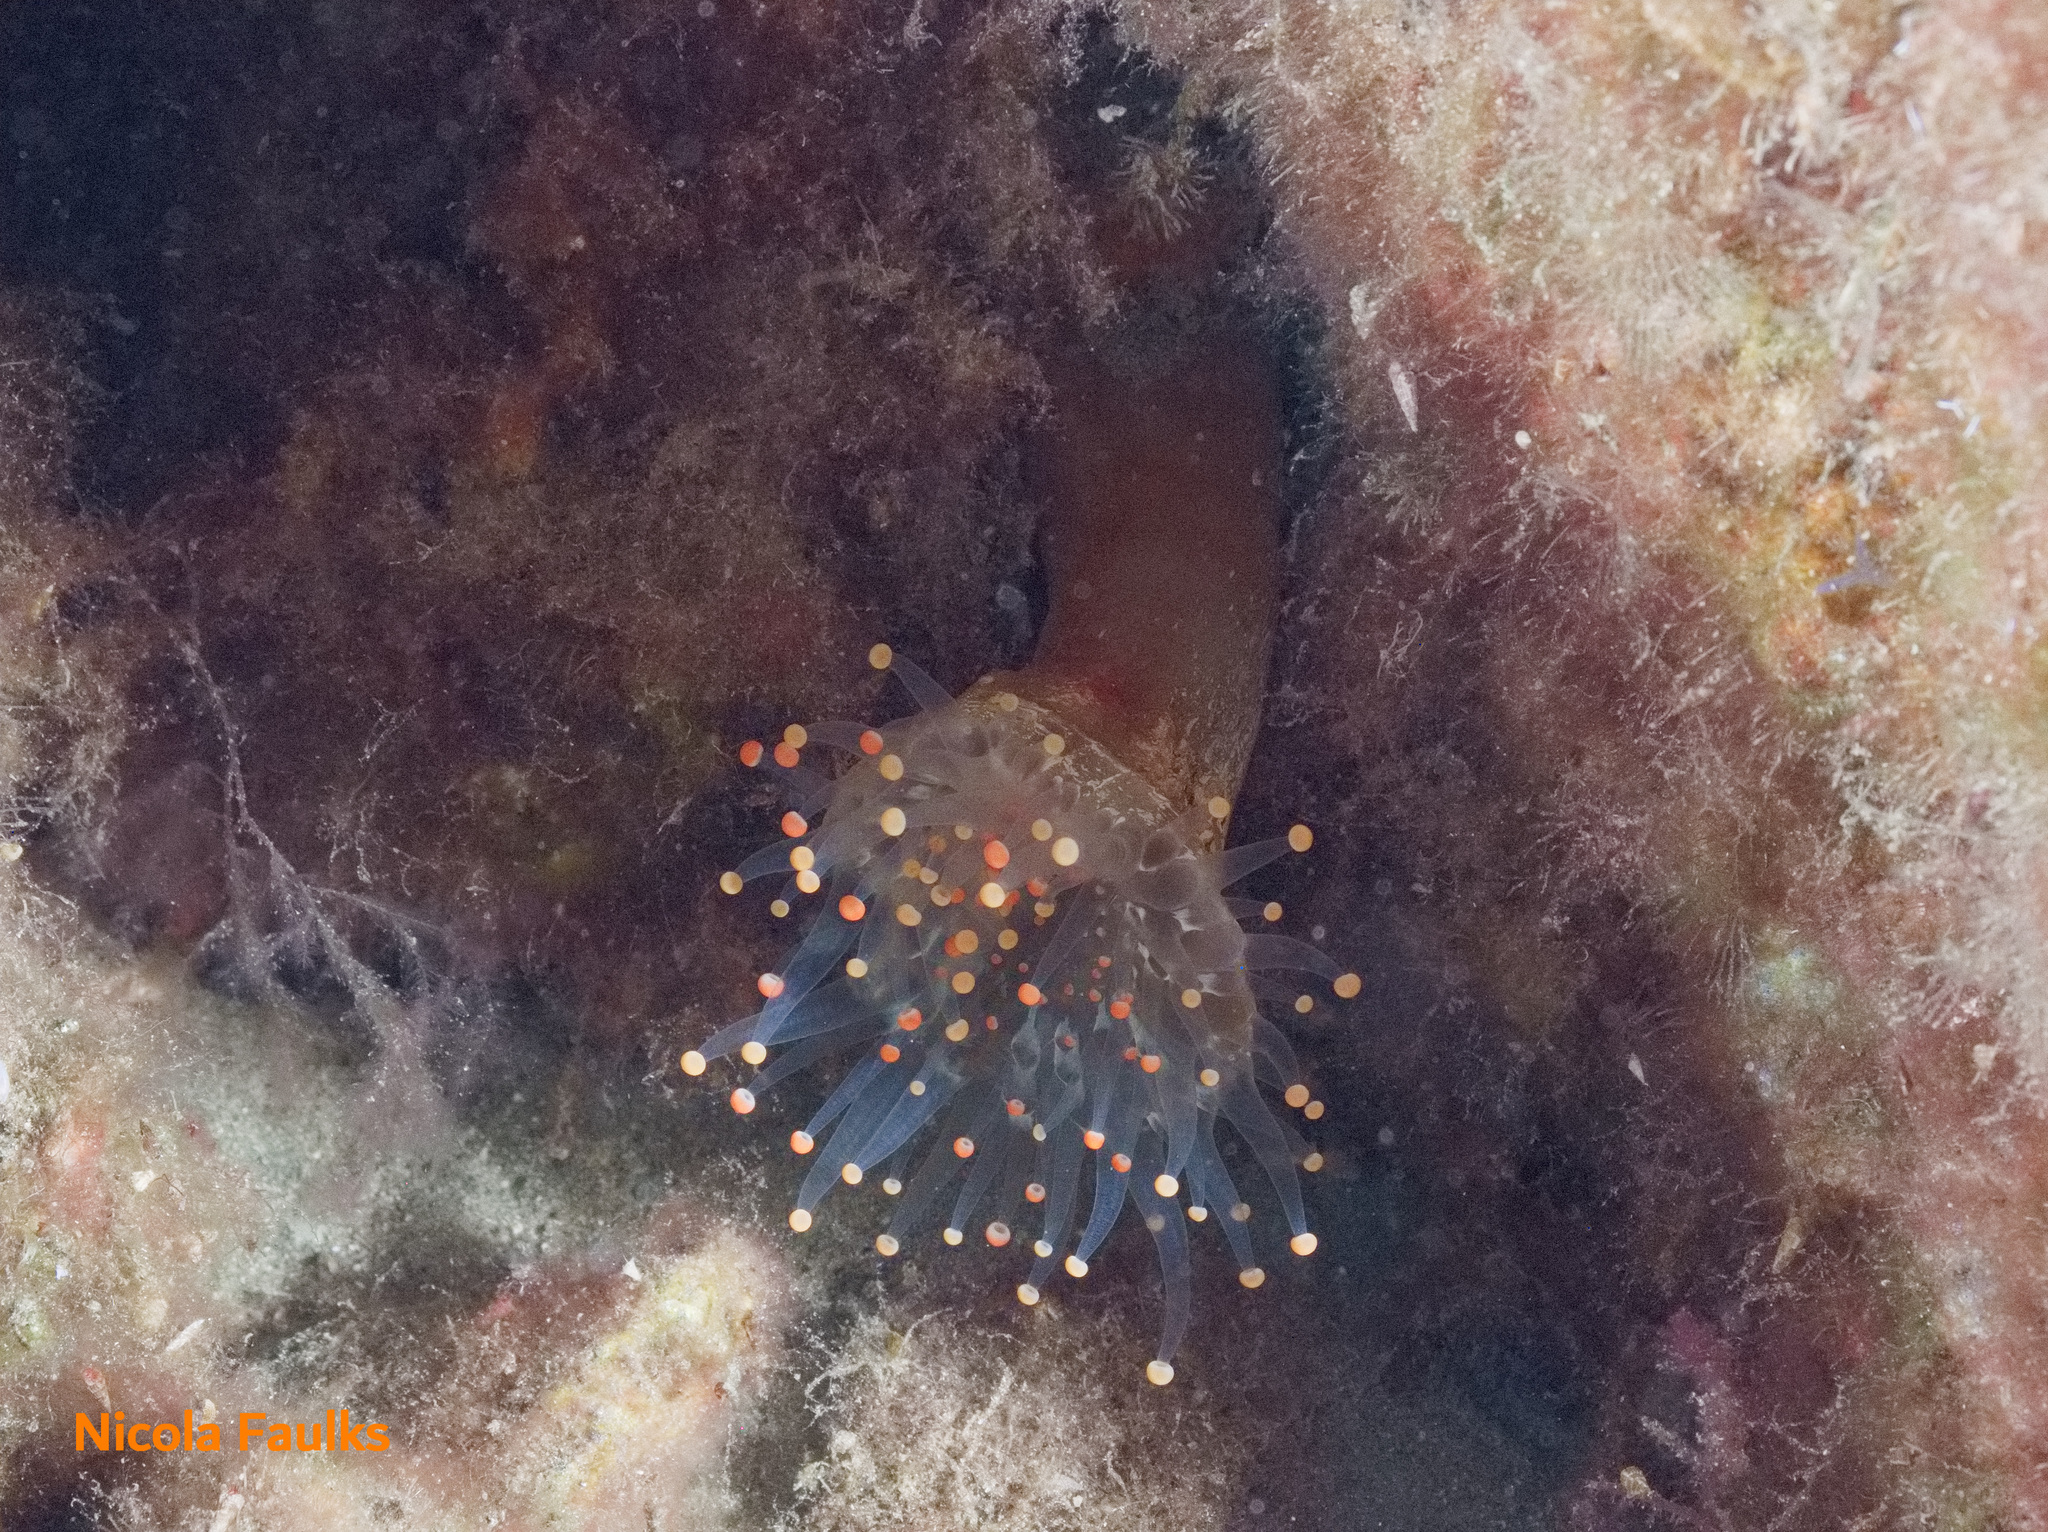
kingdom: Animalia
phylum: Cnidaria
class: Anthozoa
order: Corallimorpharia
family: Corallimorphidae
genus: Pseudocorynactis
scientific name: Pseudocorynactis caribbeorum
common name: Orange ball anemone
